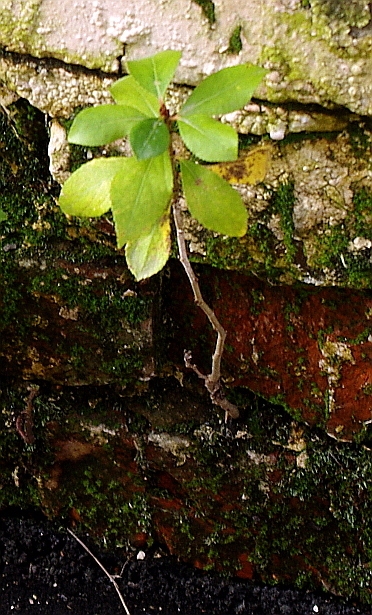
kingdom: Plantae
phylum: Tracheophyta
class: Magnoliopsida
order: Malpighiales
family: Salicaceae
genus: Populus
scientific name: Populus
